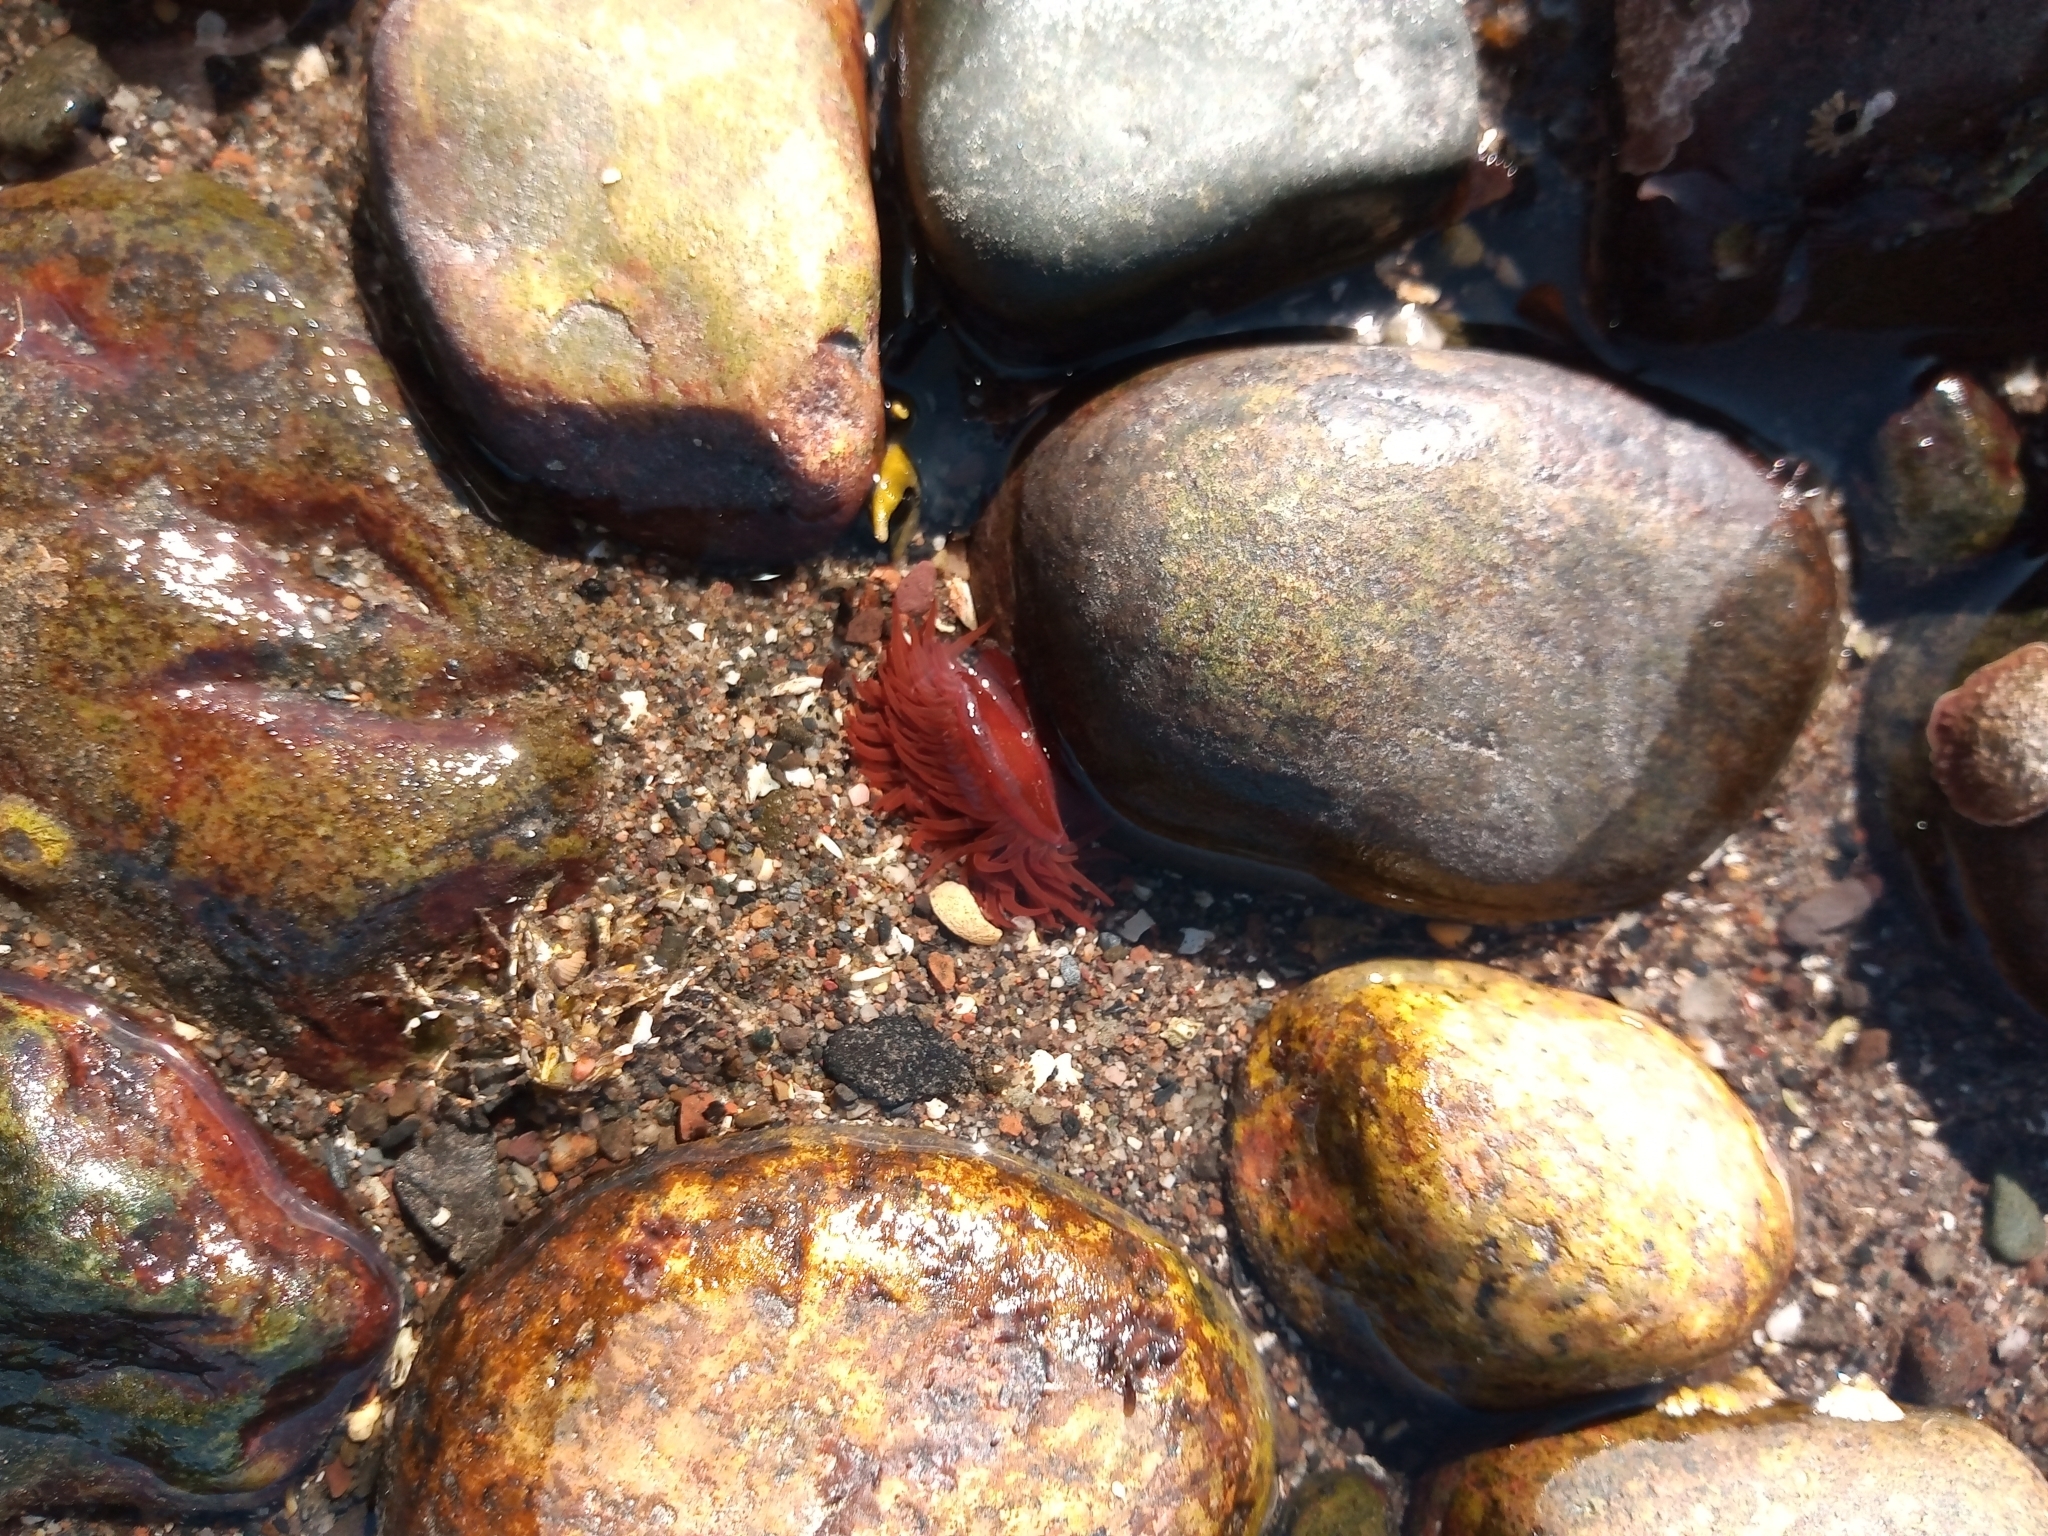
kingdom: Animalia
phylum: Cnidaria
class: Anthozoa
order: Actiniaria
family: Actiniidae
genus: Actinia
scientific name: Actinia equina
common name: Beadlet anemone
